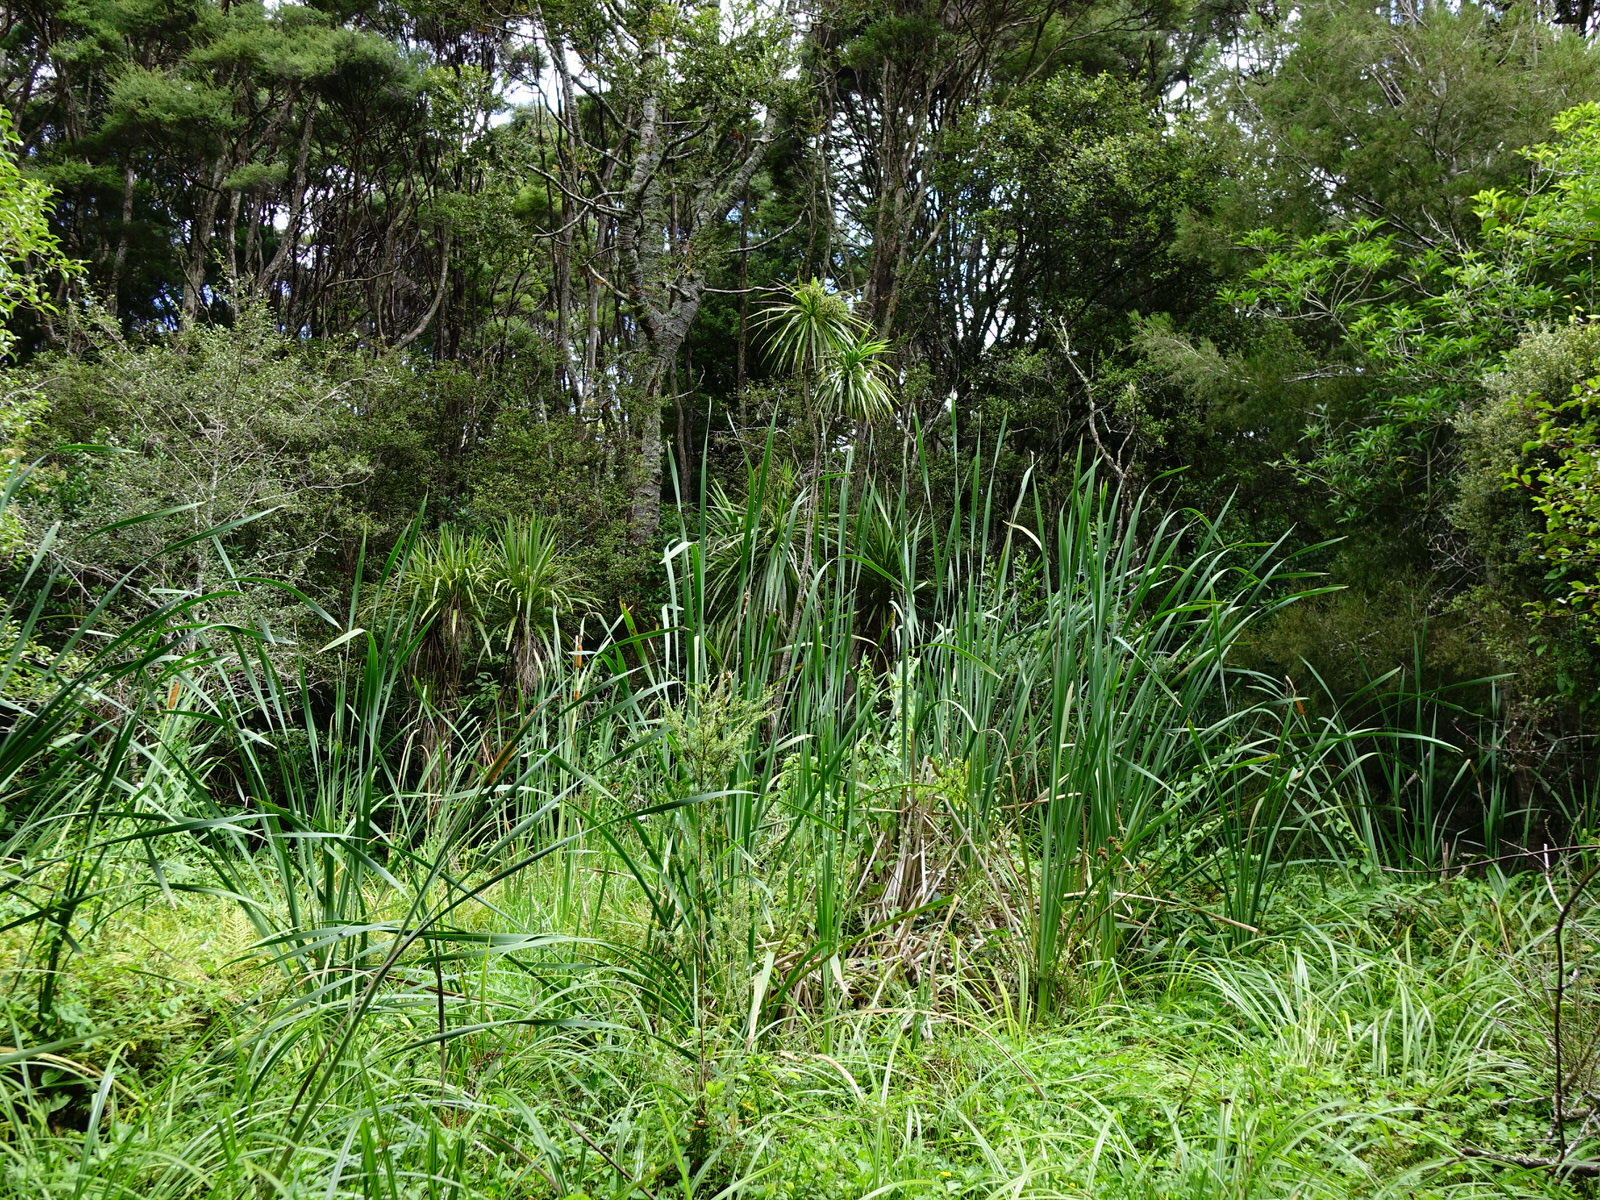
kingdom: Plantae
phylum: Tracheophyta
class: Liliopsida
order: Poales
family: Typhaceae
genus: Typha
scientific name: Typha orientalis
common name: Bullrush
